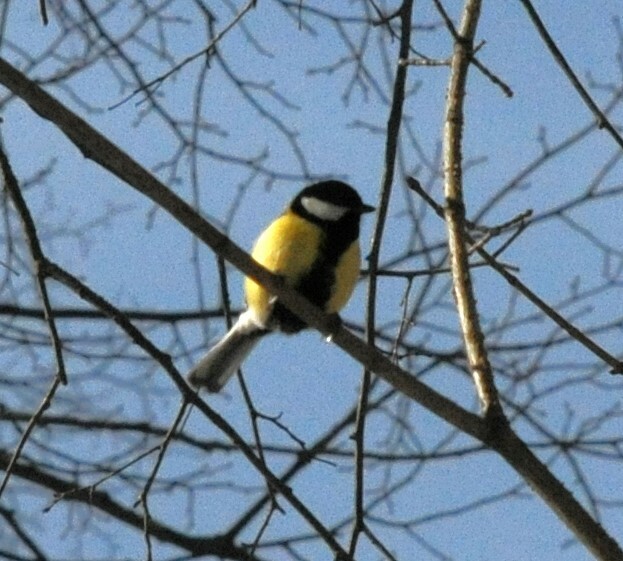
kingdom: Animalia
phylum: Chordata
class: Aves
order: Passeriformes
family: Paridae
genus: Parus
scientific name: Parus major
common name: Great tit
